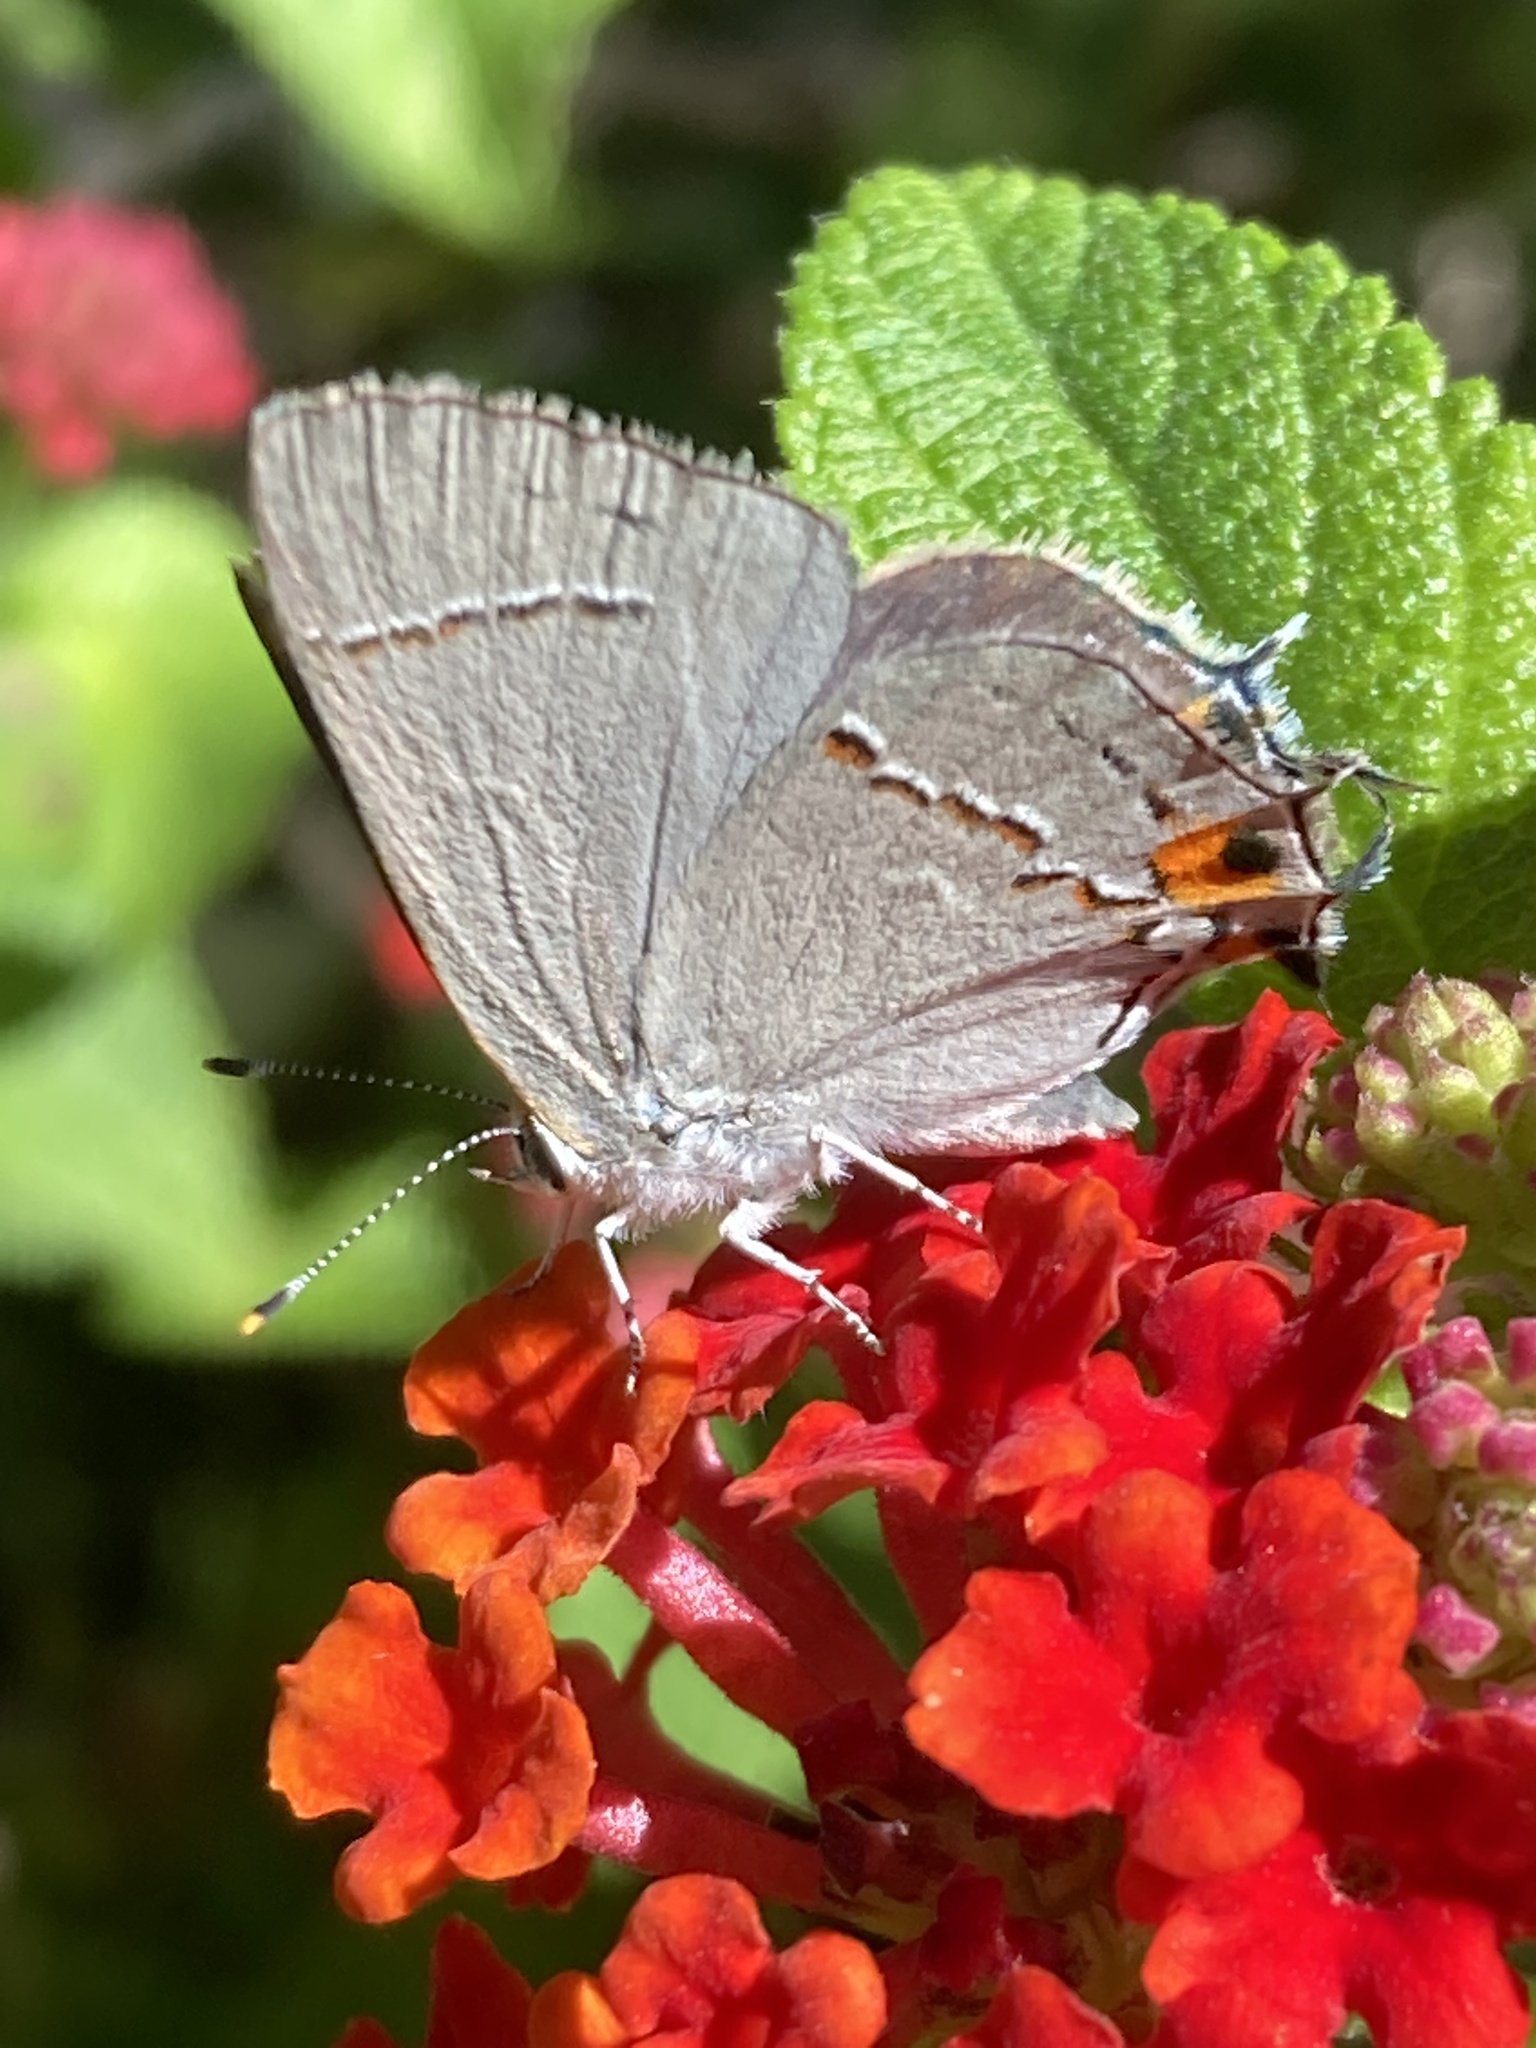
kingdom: Animalia
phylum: Arthropoda
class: Insecta
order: Lepidoptera
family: Lycaenidae
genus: Strymon
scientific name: Strymon melinus
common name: Gray hairstreak
